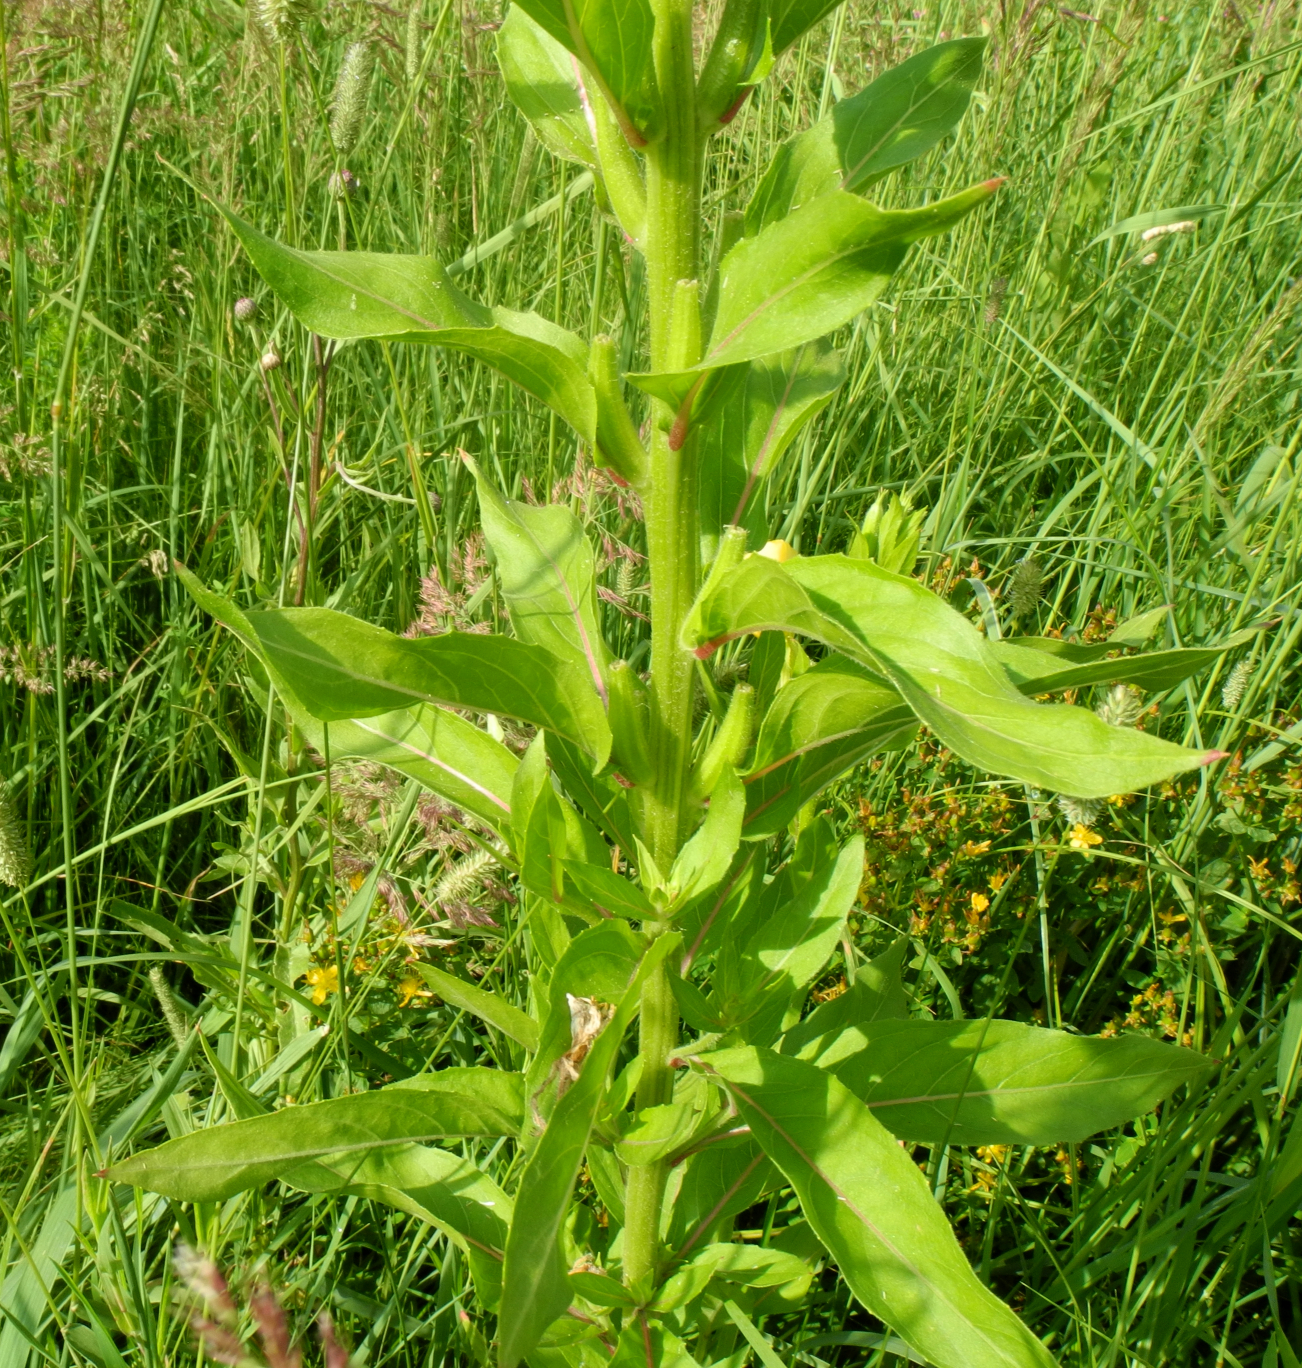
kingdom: Plantae
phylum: Tracheophyta
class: Magnoliopsida
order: Myrtales
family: Onagraceae
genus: Oenothera
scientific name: Oenothera biennis
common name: Common evening-primrose
